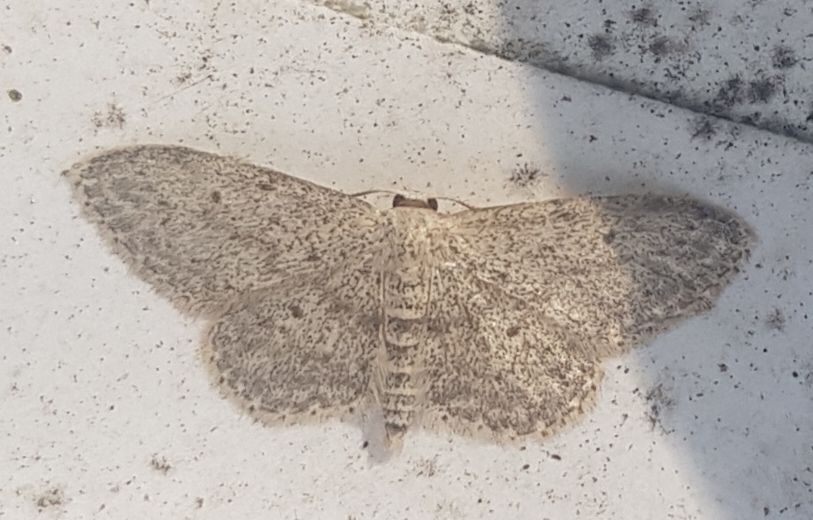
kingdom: Animalia
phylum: Arthropoda
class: Insecta
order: Lepidoptera
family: Geometridae
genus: Idaea
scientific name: Idaea seriata
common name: Small dusty wave
